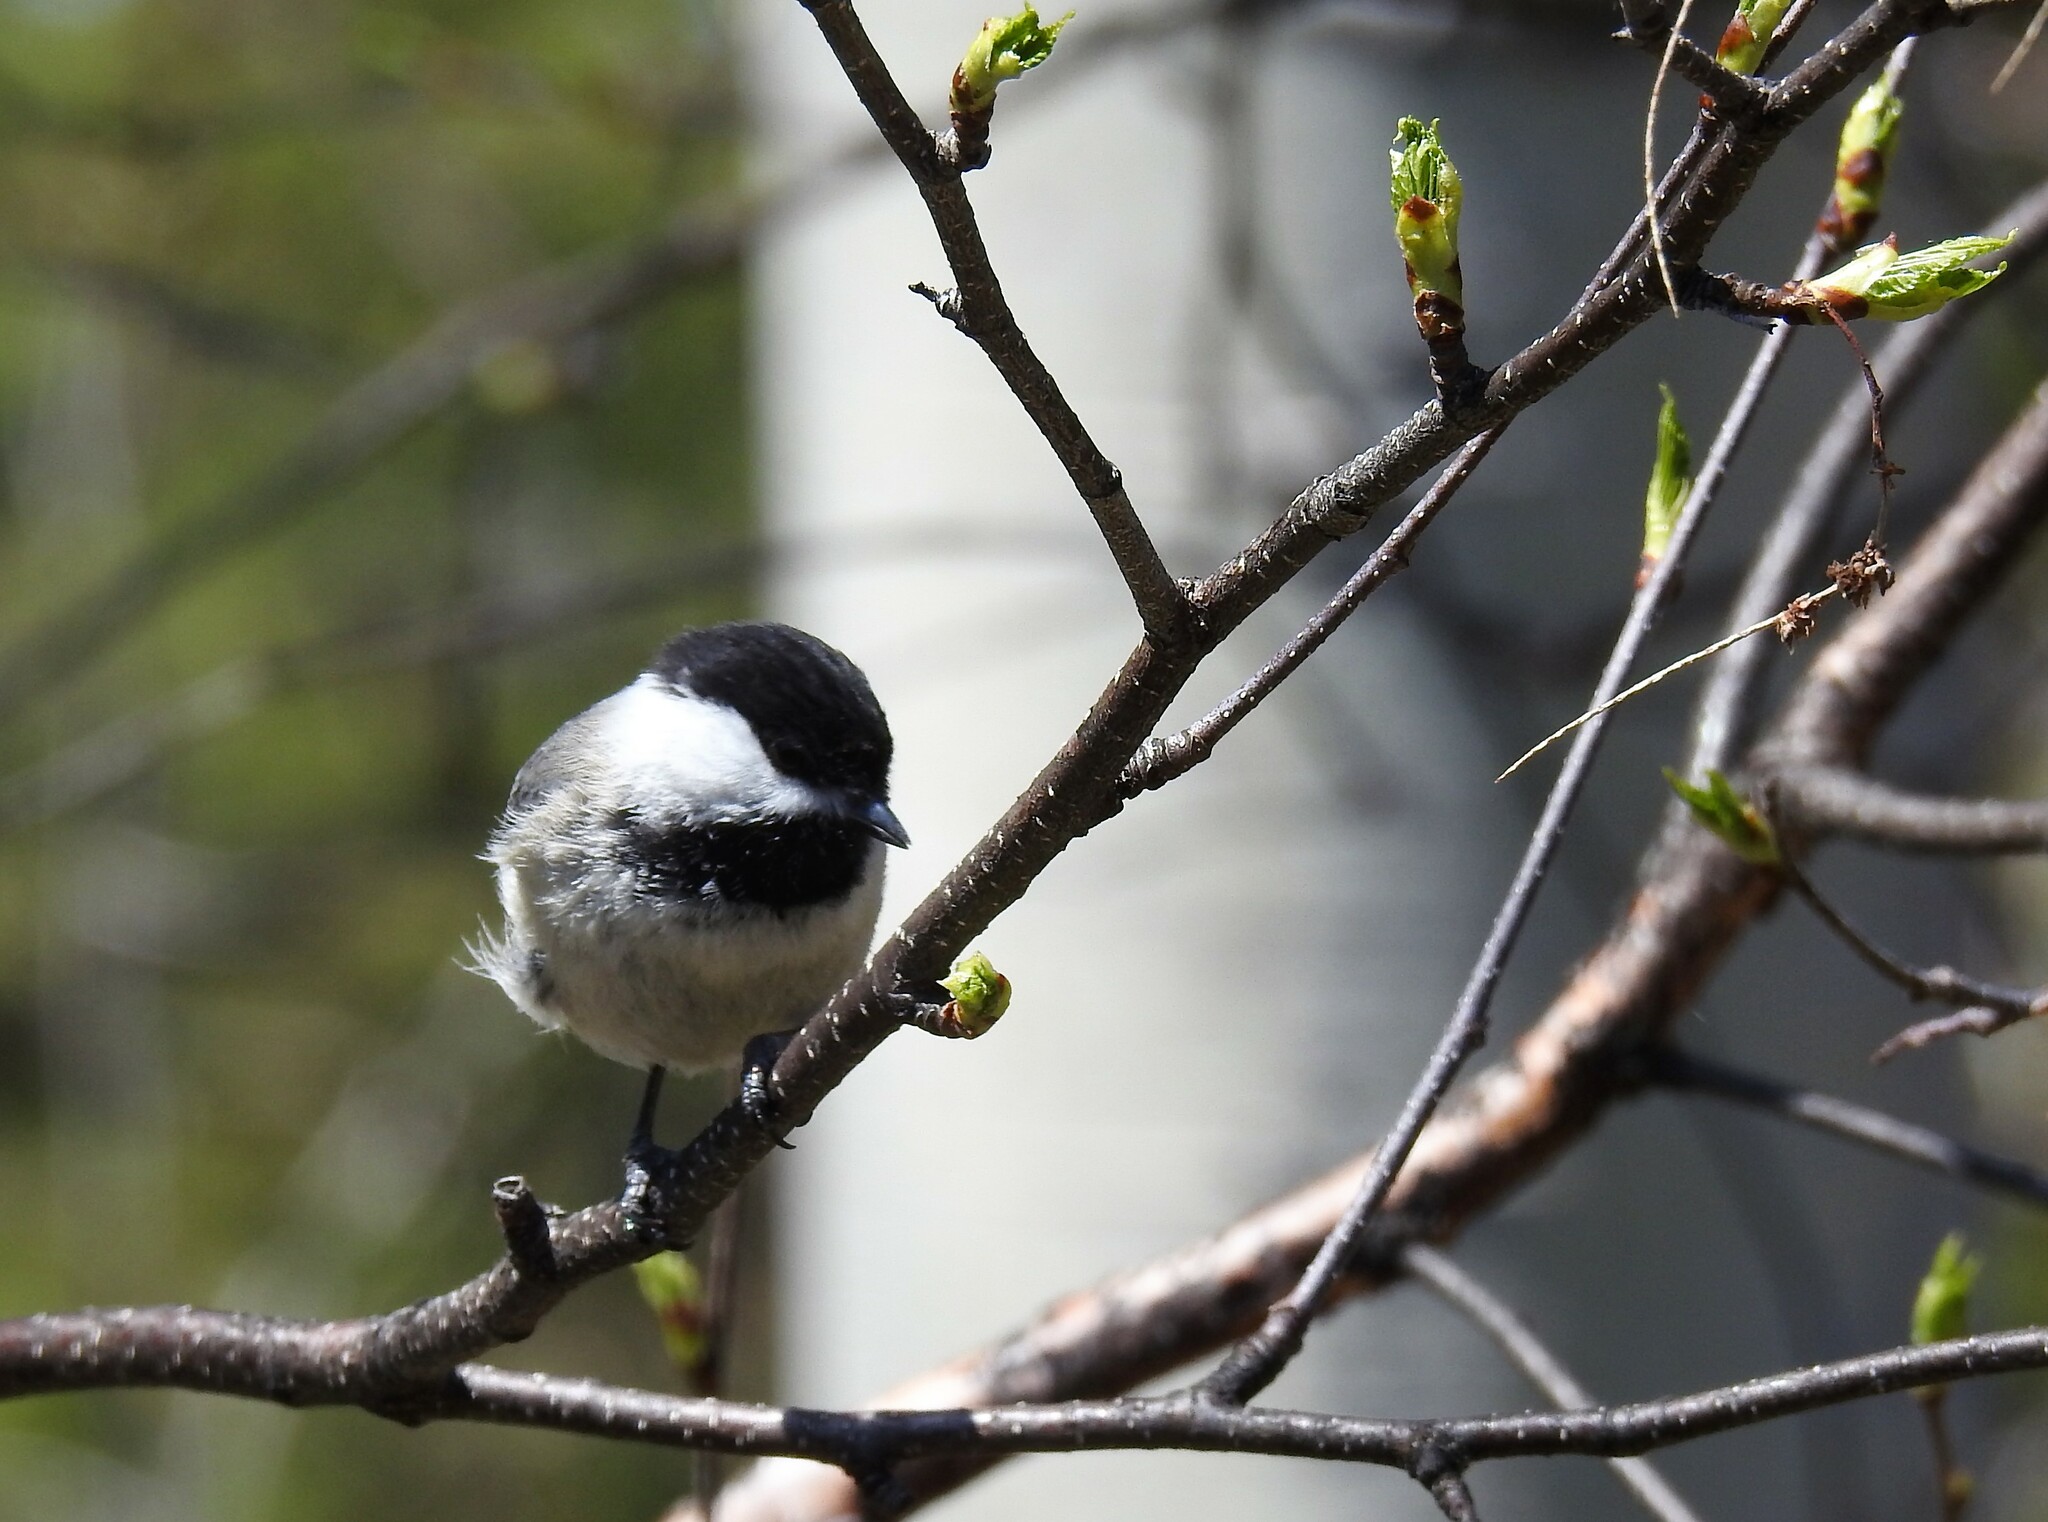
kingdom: Animalia
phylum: Chordata
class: Aves
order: Passeriformes
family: Paridae
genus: Poecile
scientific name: Poecile atricapillus
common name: Black-capped chickadee
